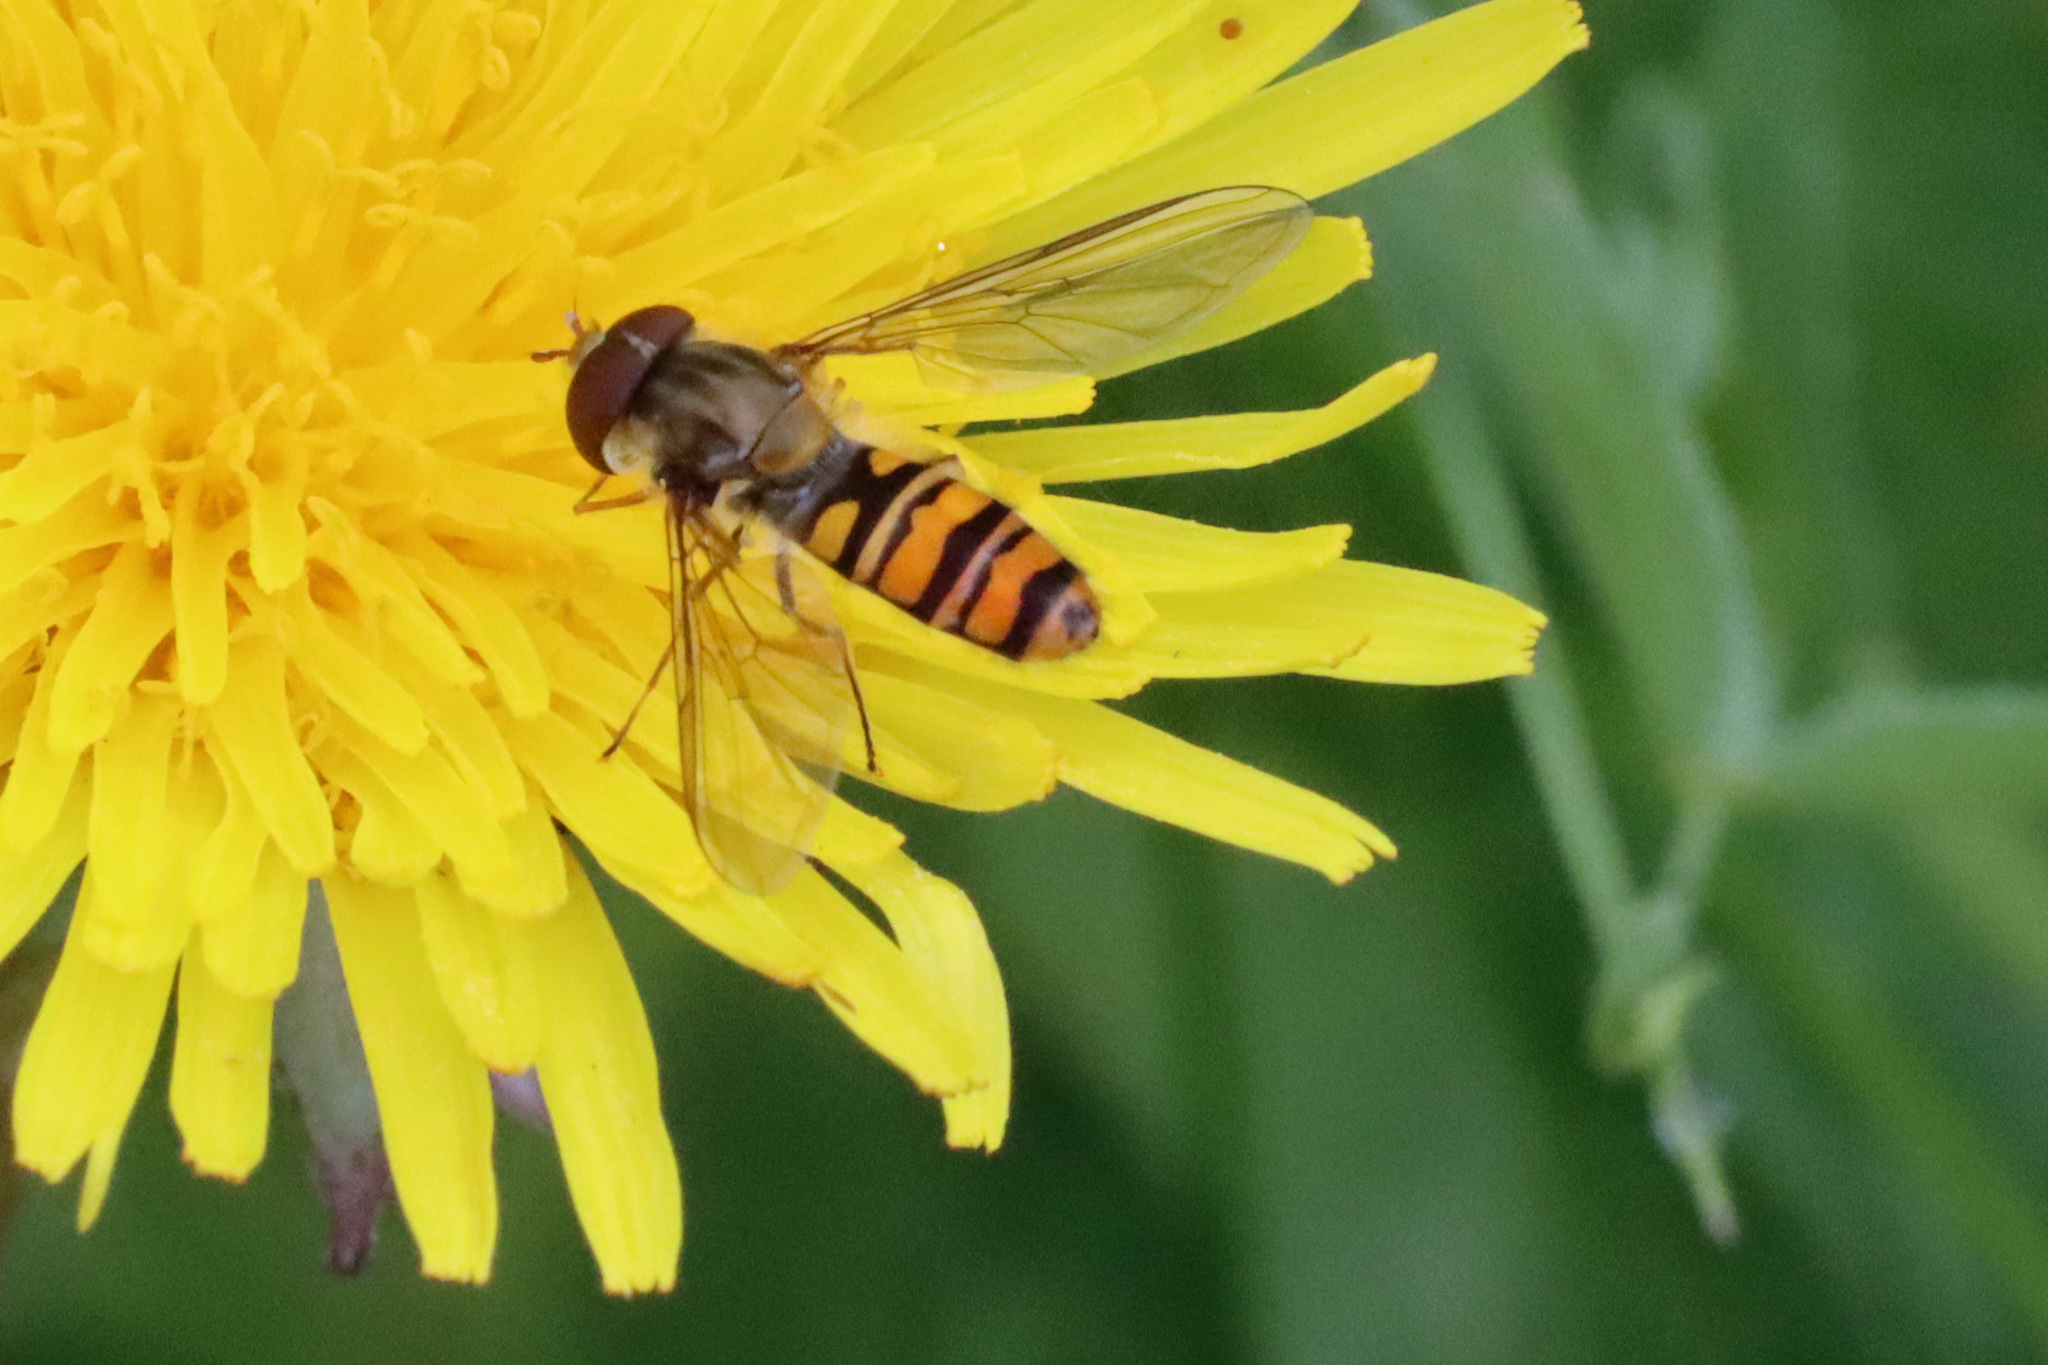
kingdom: Animalia
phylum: Arthropoda
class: Insecta
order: Diptera
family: Syrphidae
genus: Episyrphus
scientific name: Episyrphus balteatus
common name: Marmalade hoverfly
